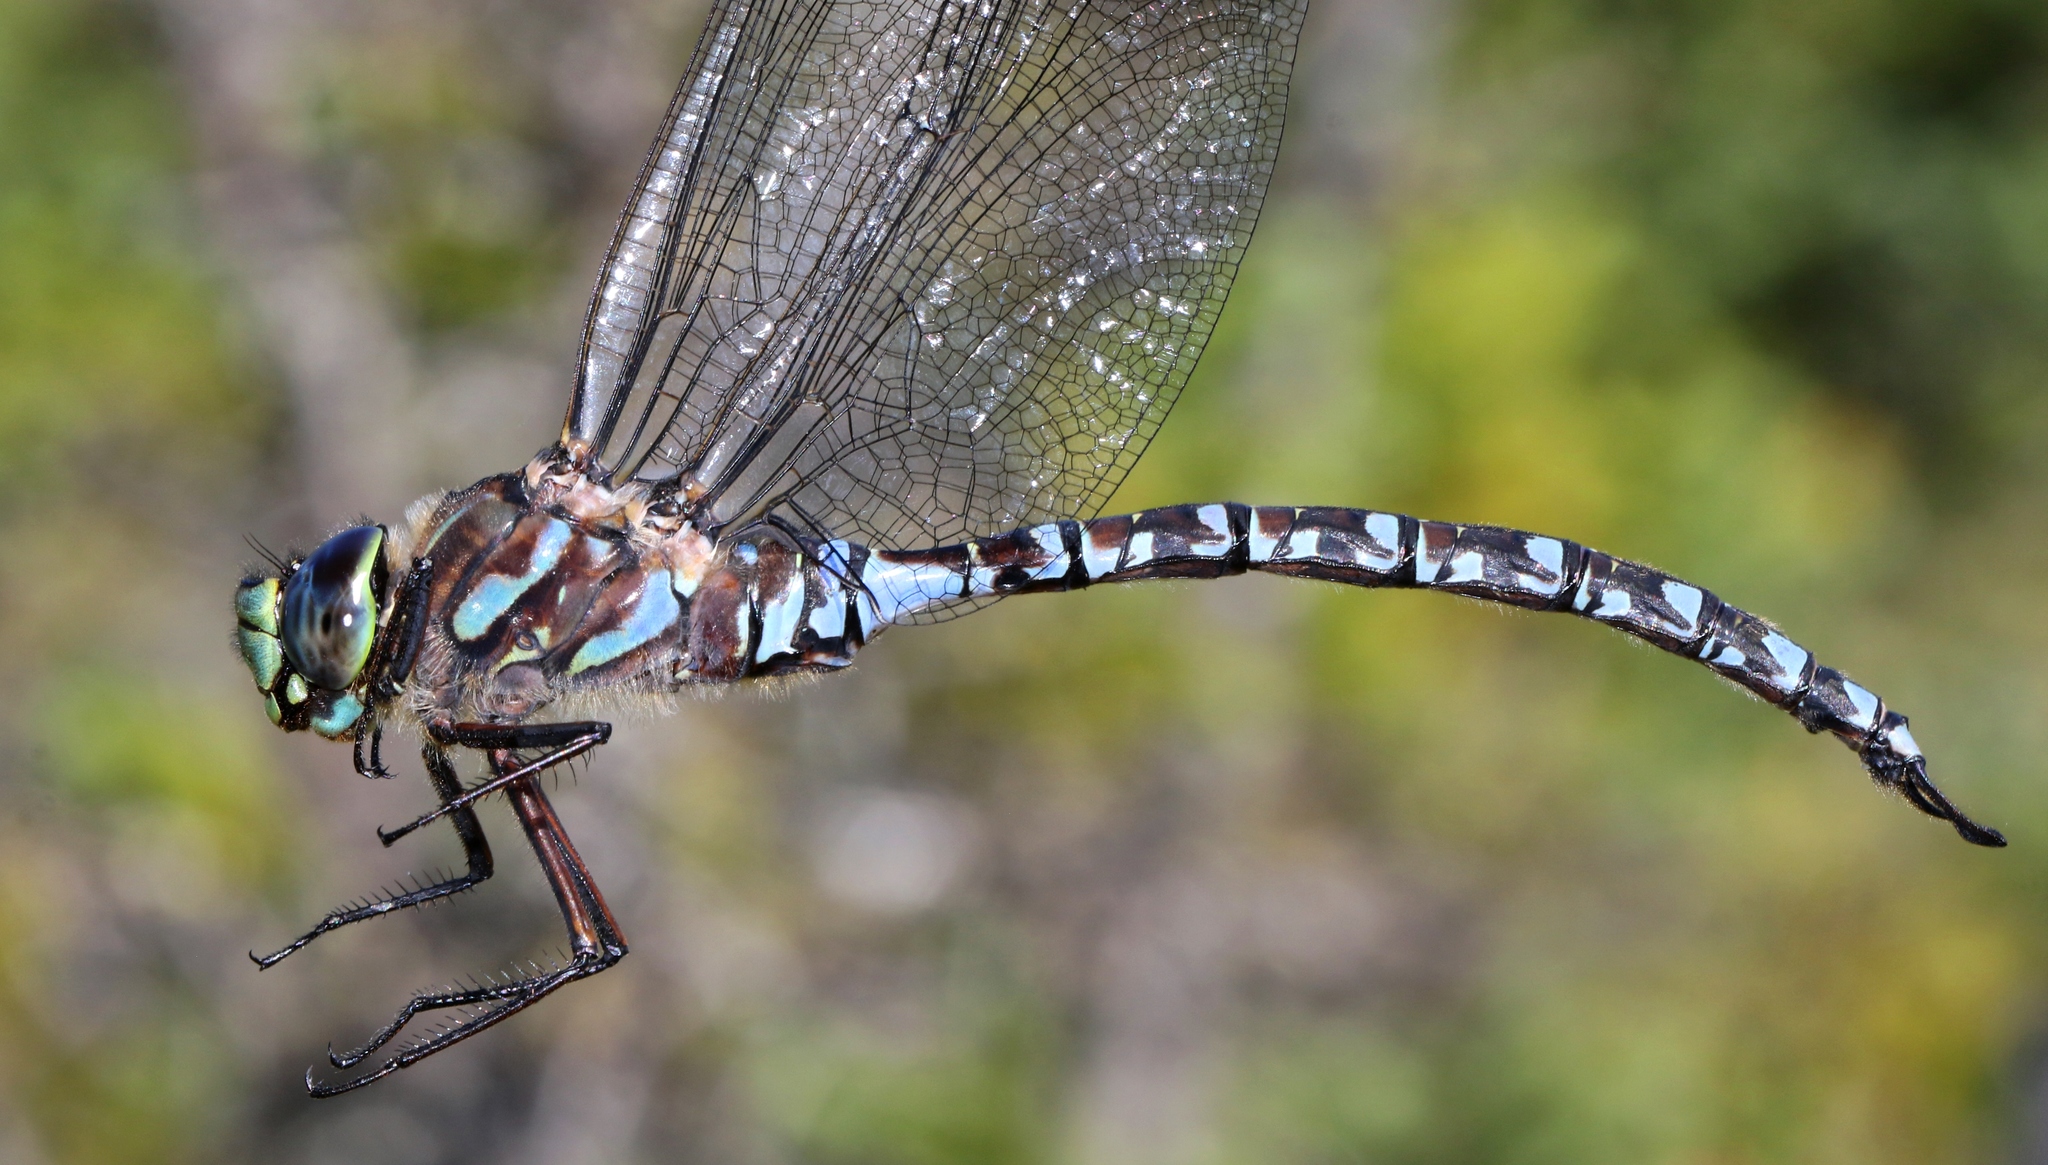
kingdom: Animalia
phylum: Arthropoda
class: Insecta
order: Odonata
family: Aeshnidae
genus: Aeshna
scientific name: Aeshna eremita
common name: Lake darner
